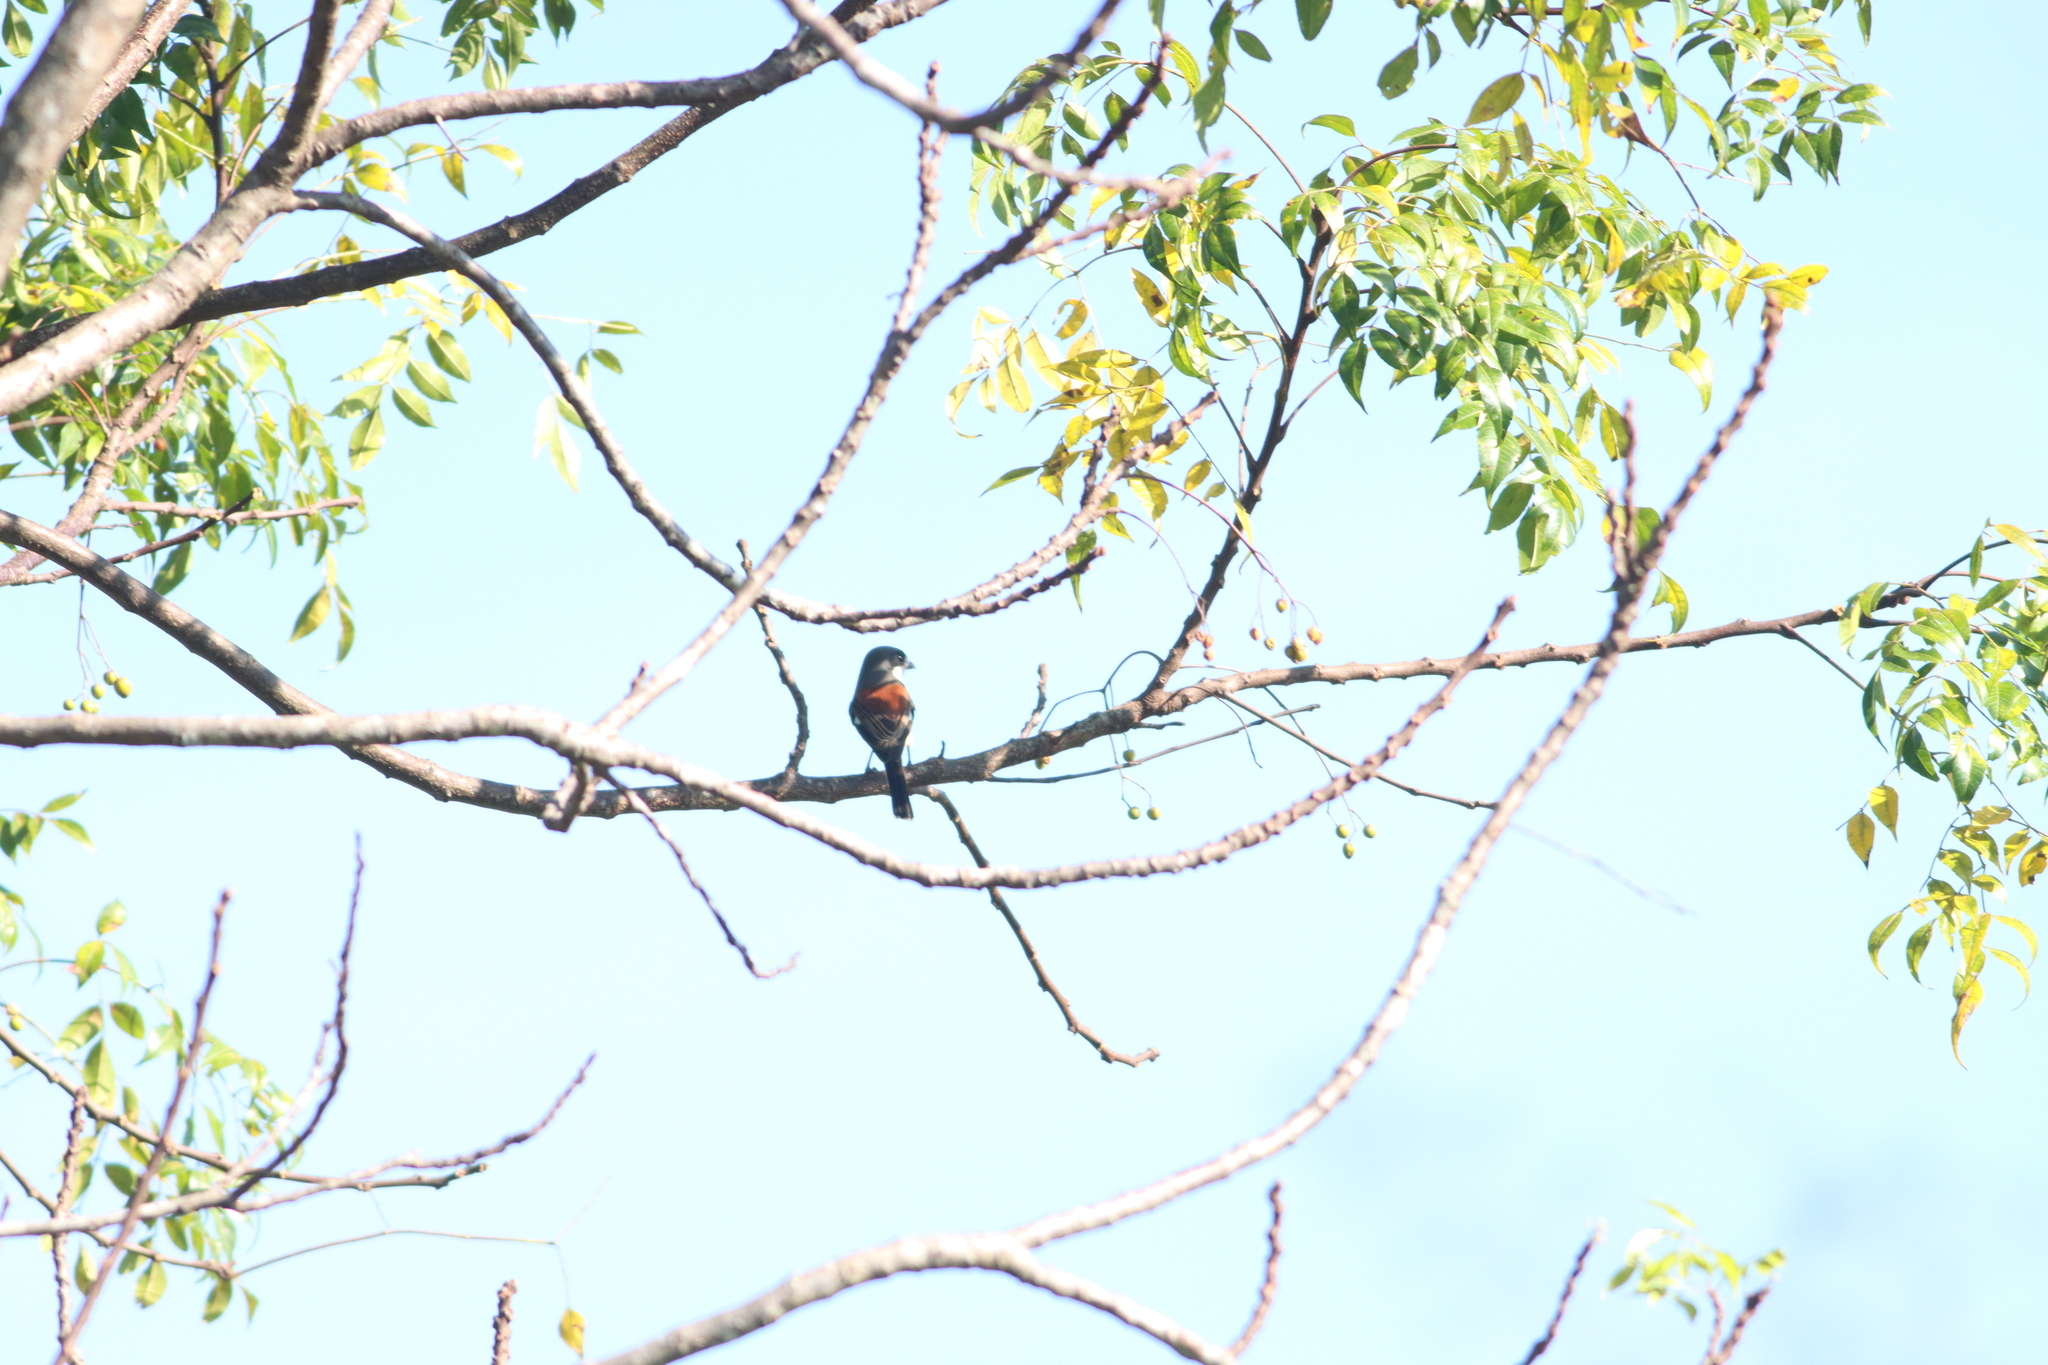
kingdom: Animalia
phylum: Chordata
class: Aves
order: Passeriformes
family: Laniidae
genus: Lanius
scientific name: Lanius collurioides
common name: Burmese shrike
